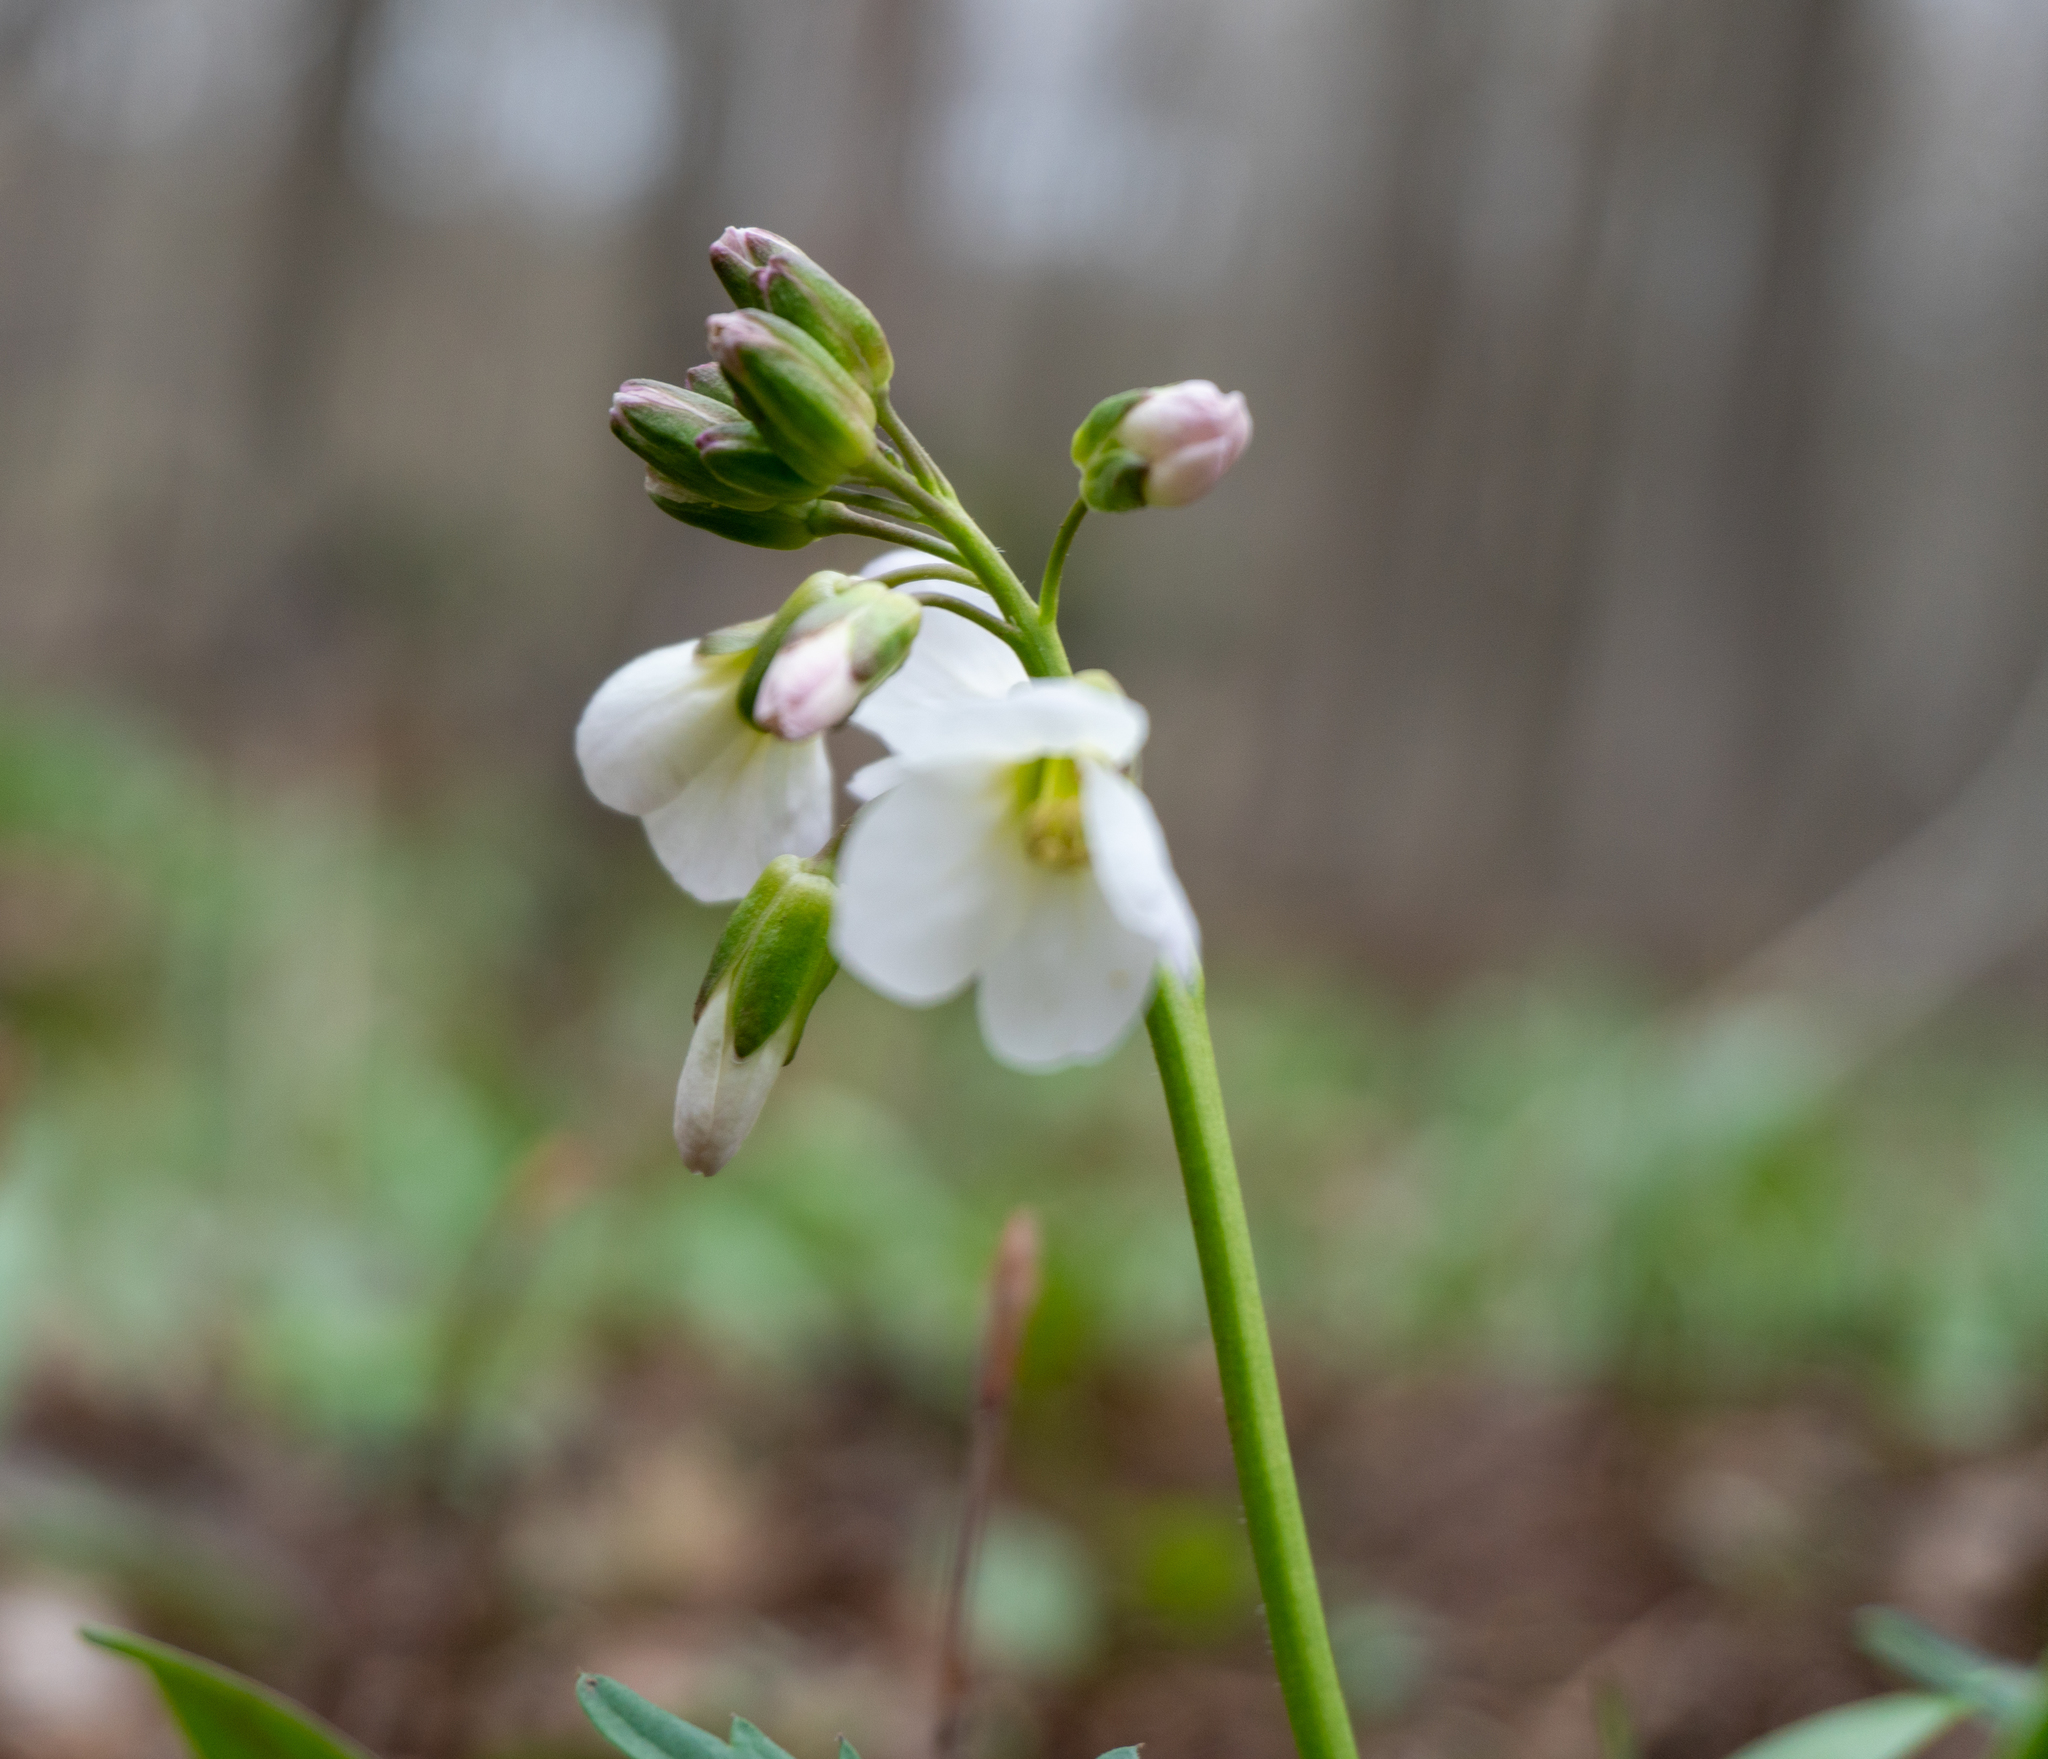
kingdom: Plantae
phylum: Tracheophyta
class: Magnoliopsida
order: Brassicales
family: Brassicaceae
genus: Cardamine
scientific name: Cardamine concatenata
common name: Cut-leaf toothcup
